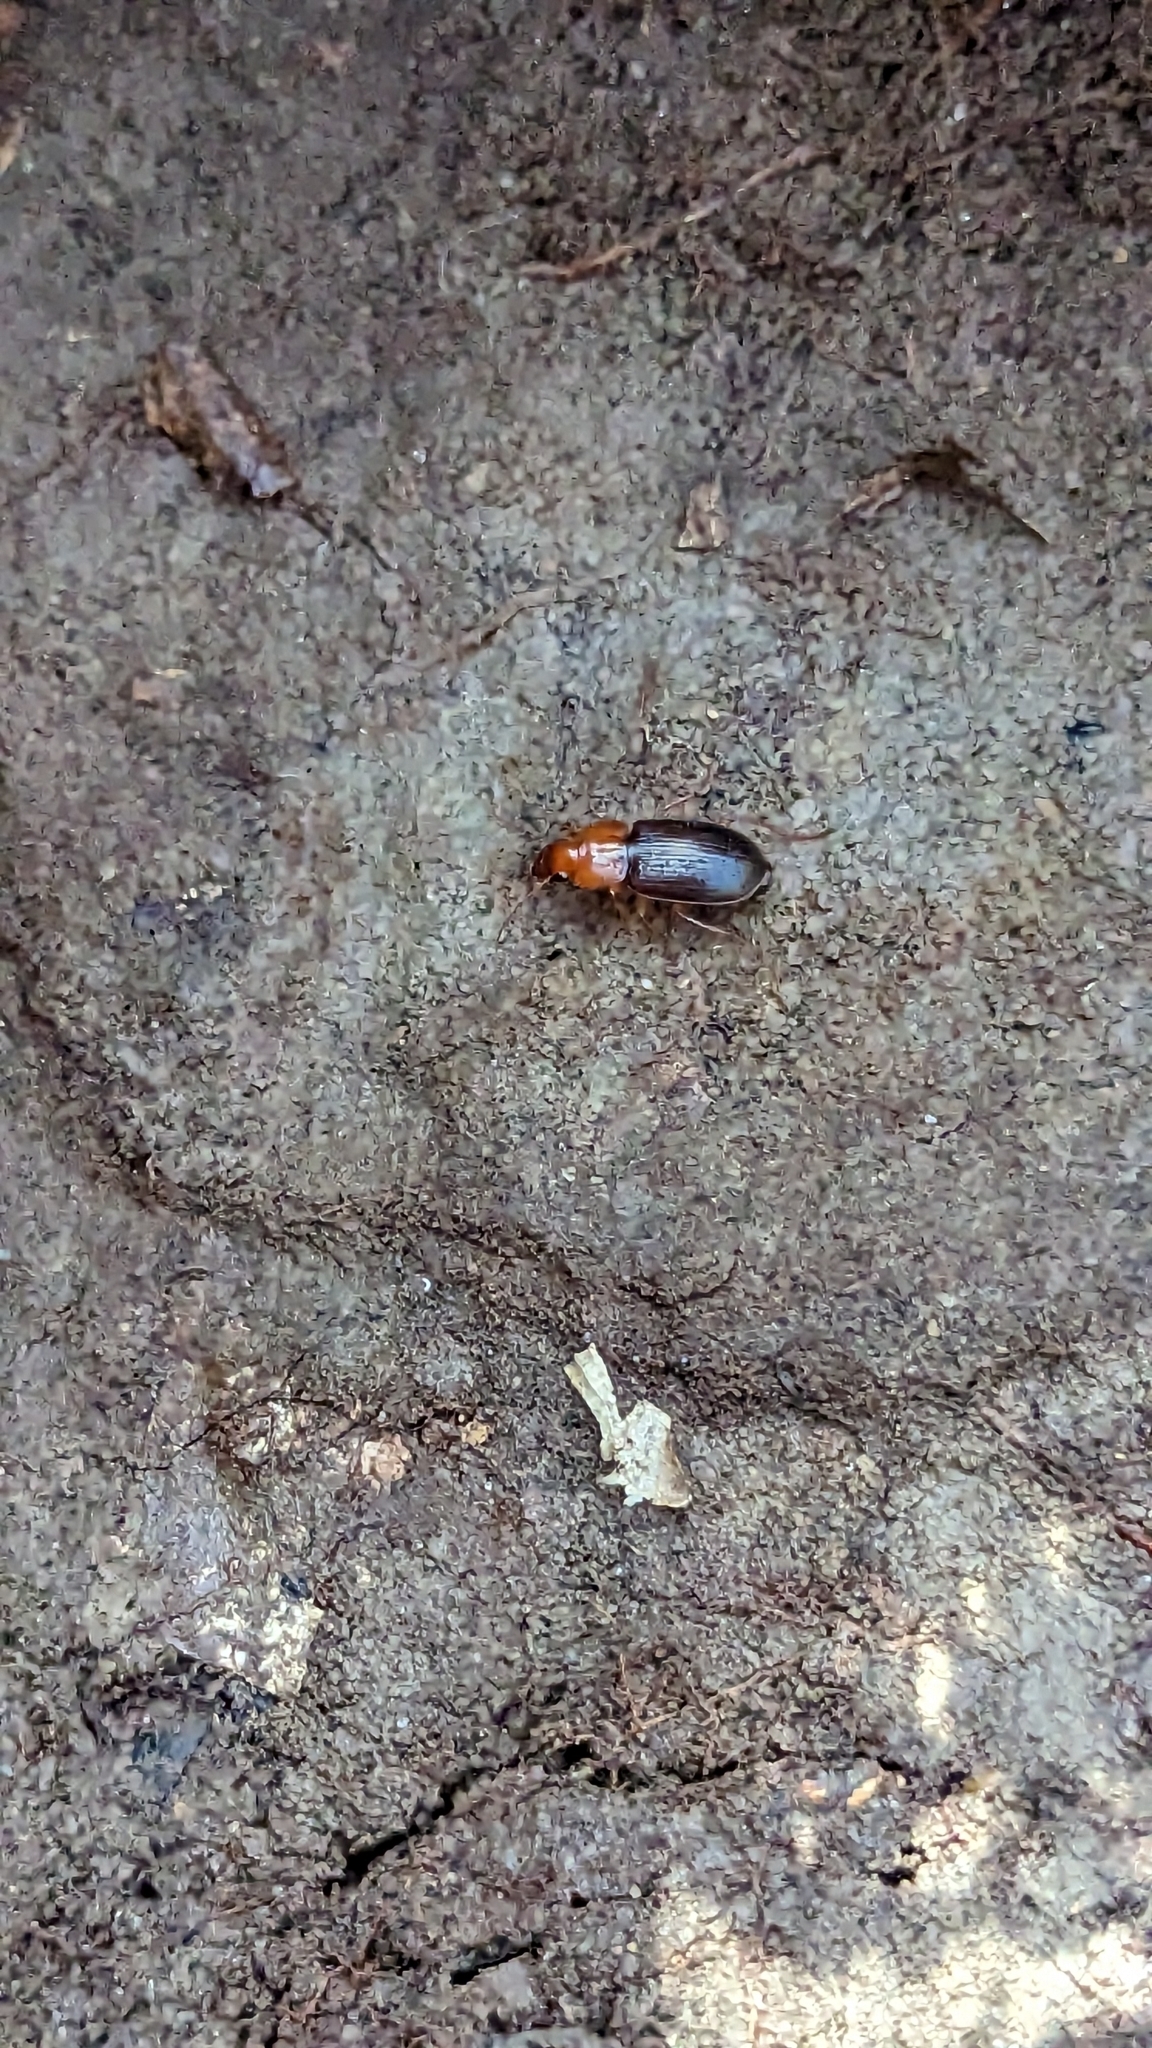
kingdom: Animalia
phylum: Arthropoda
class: Insecta
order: Coleoptera
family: Carabidae
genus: Amphasia
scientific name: Amphasia interstitialis
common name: Red-headed ground beetle
